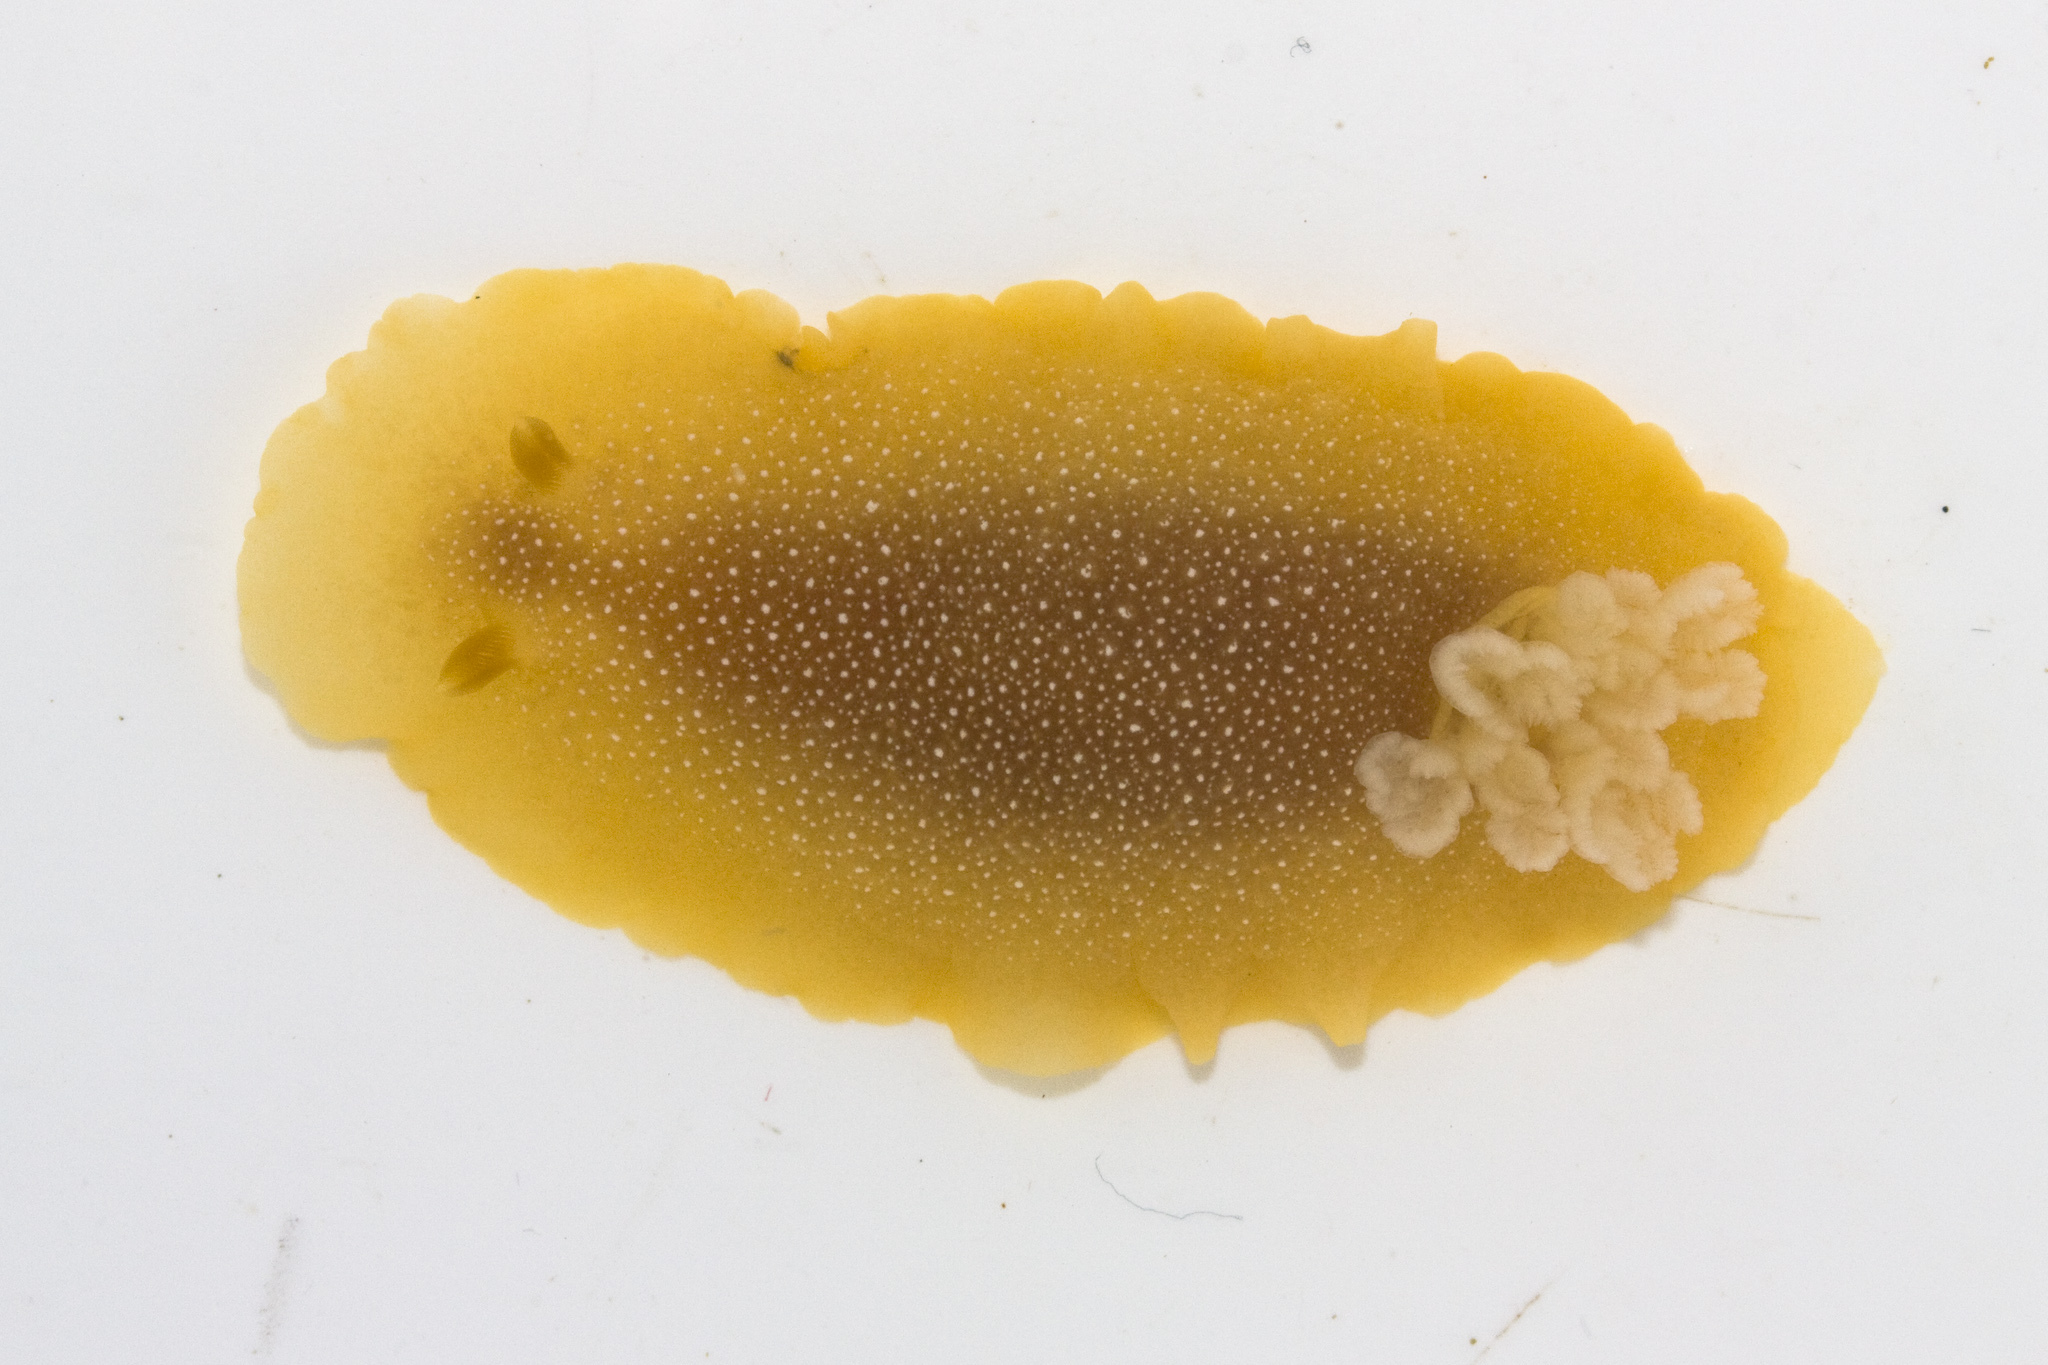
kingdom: Animalia
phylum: Mollusca
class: Gastropoda
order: Nudibranchia
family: Dendrodorididae
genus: Doriopsilla
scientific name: Doriopsilla albopunctata
